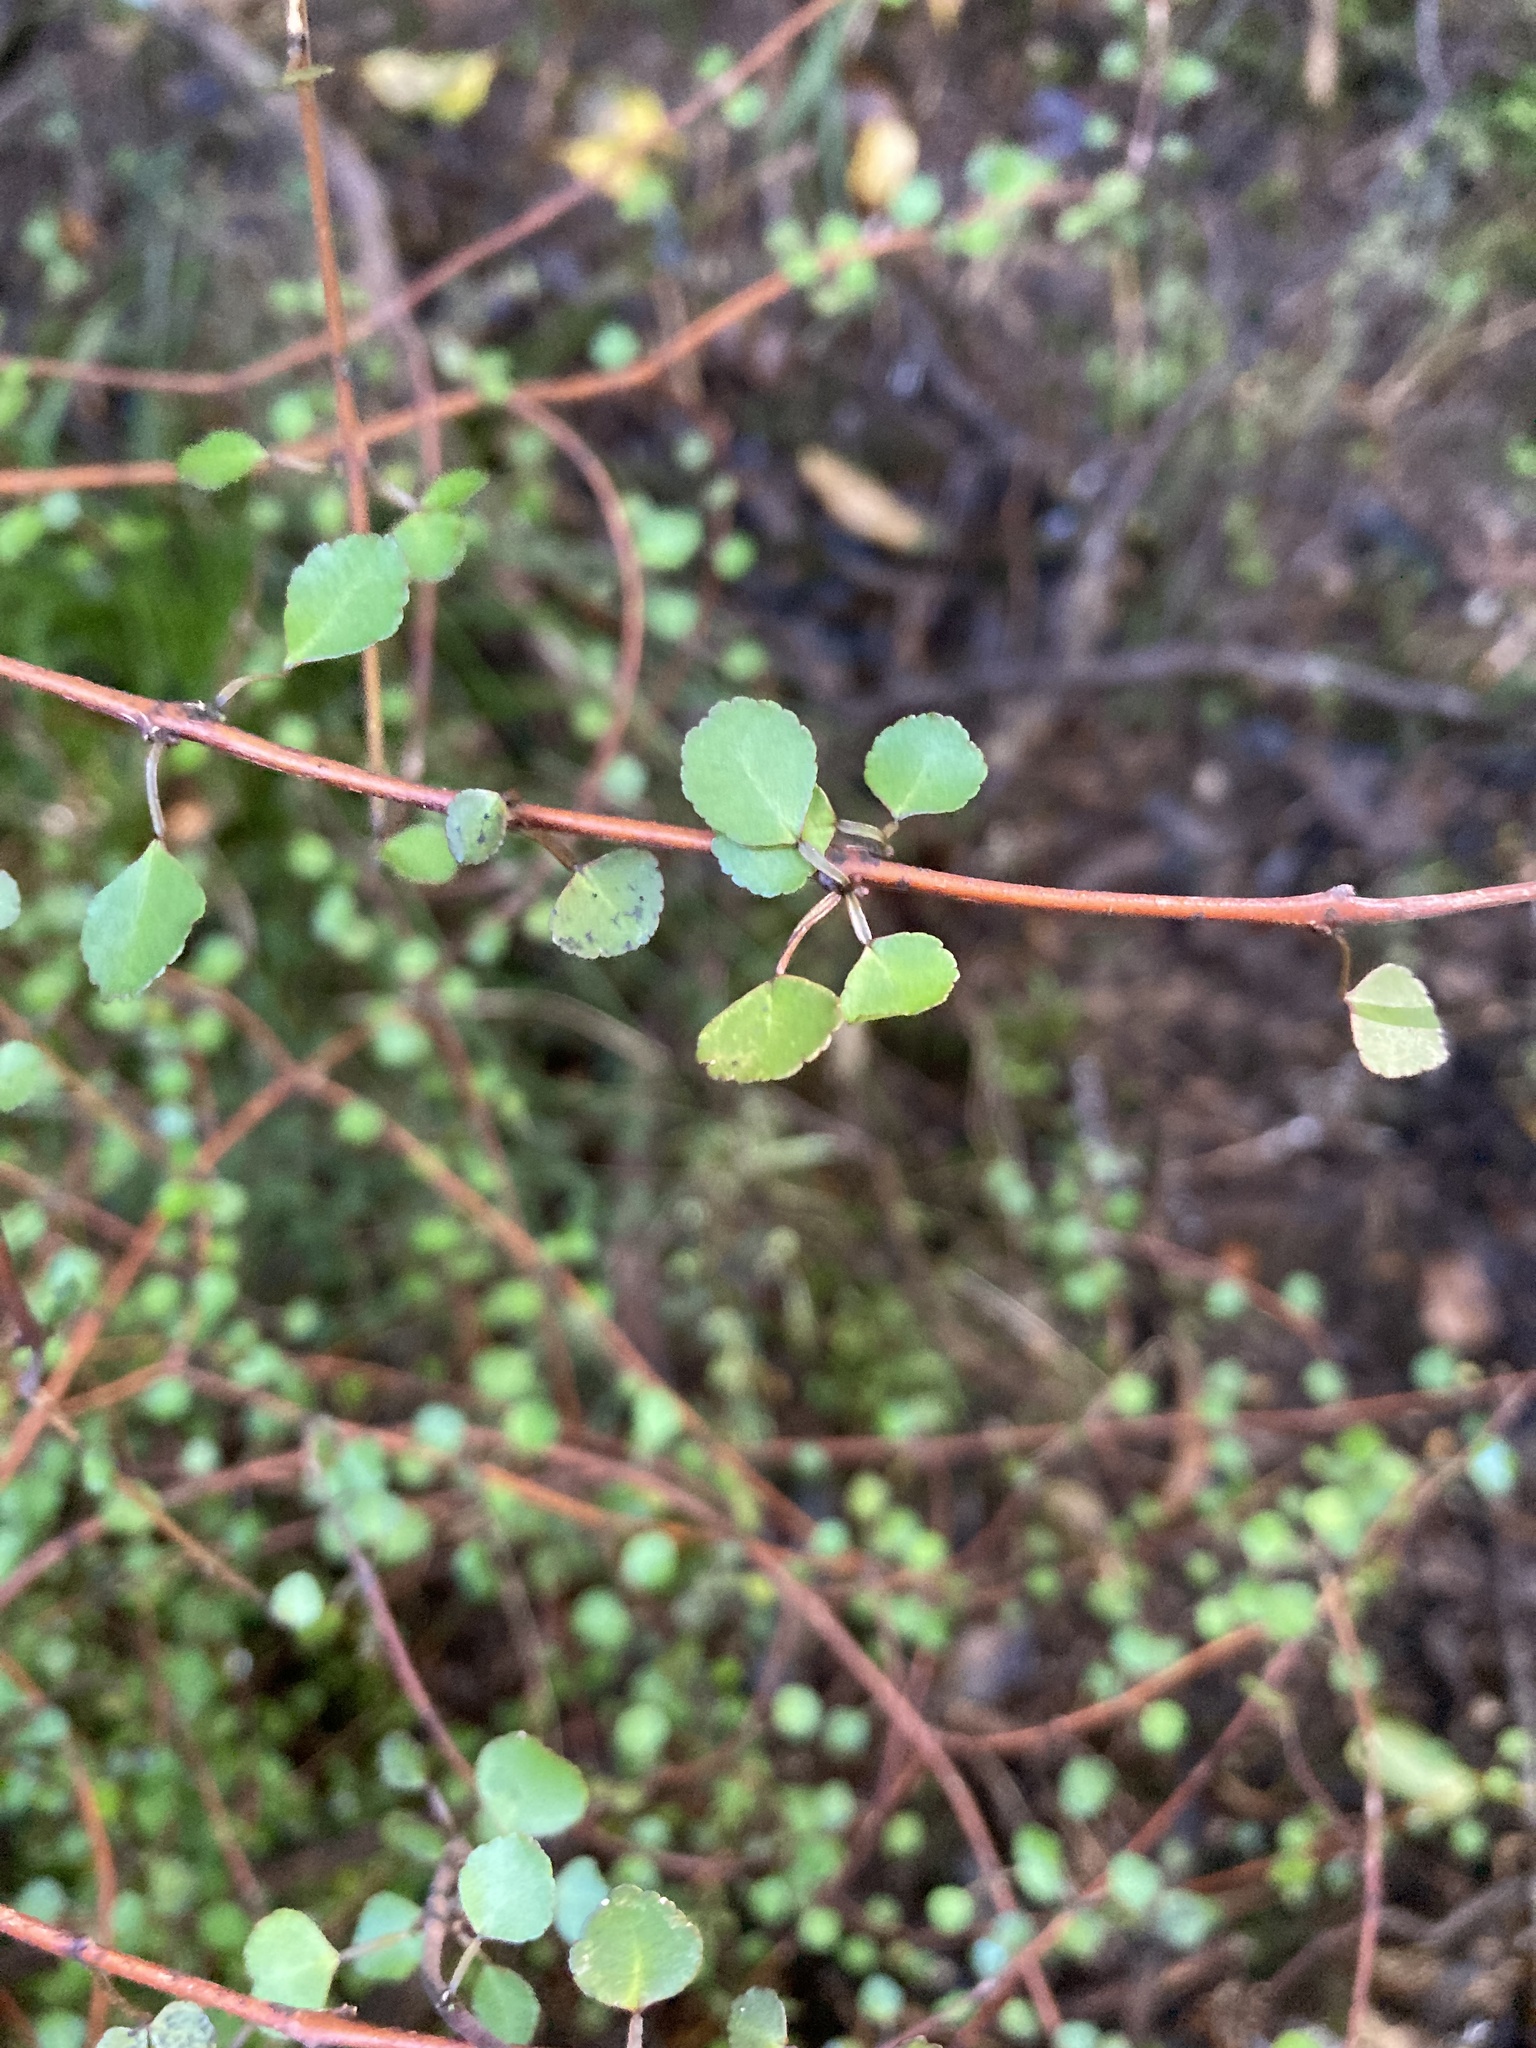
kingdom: Plantae
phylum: Tracheophyta
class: Magnoliopsida
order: Sapindales
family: Rutaceae
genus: Melicope
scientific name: Melicope simplex
